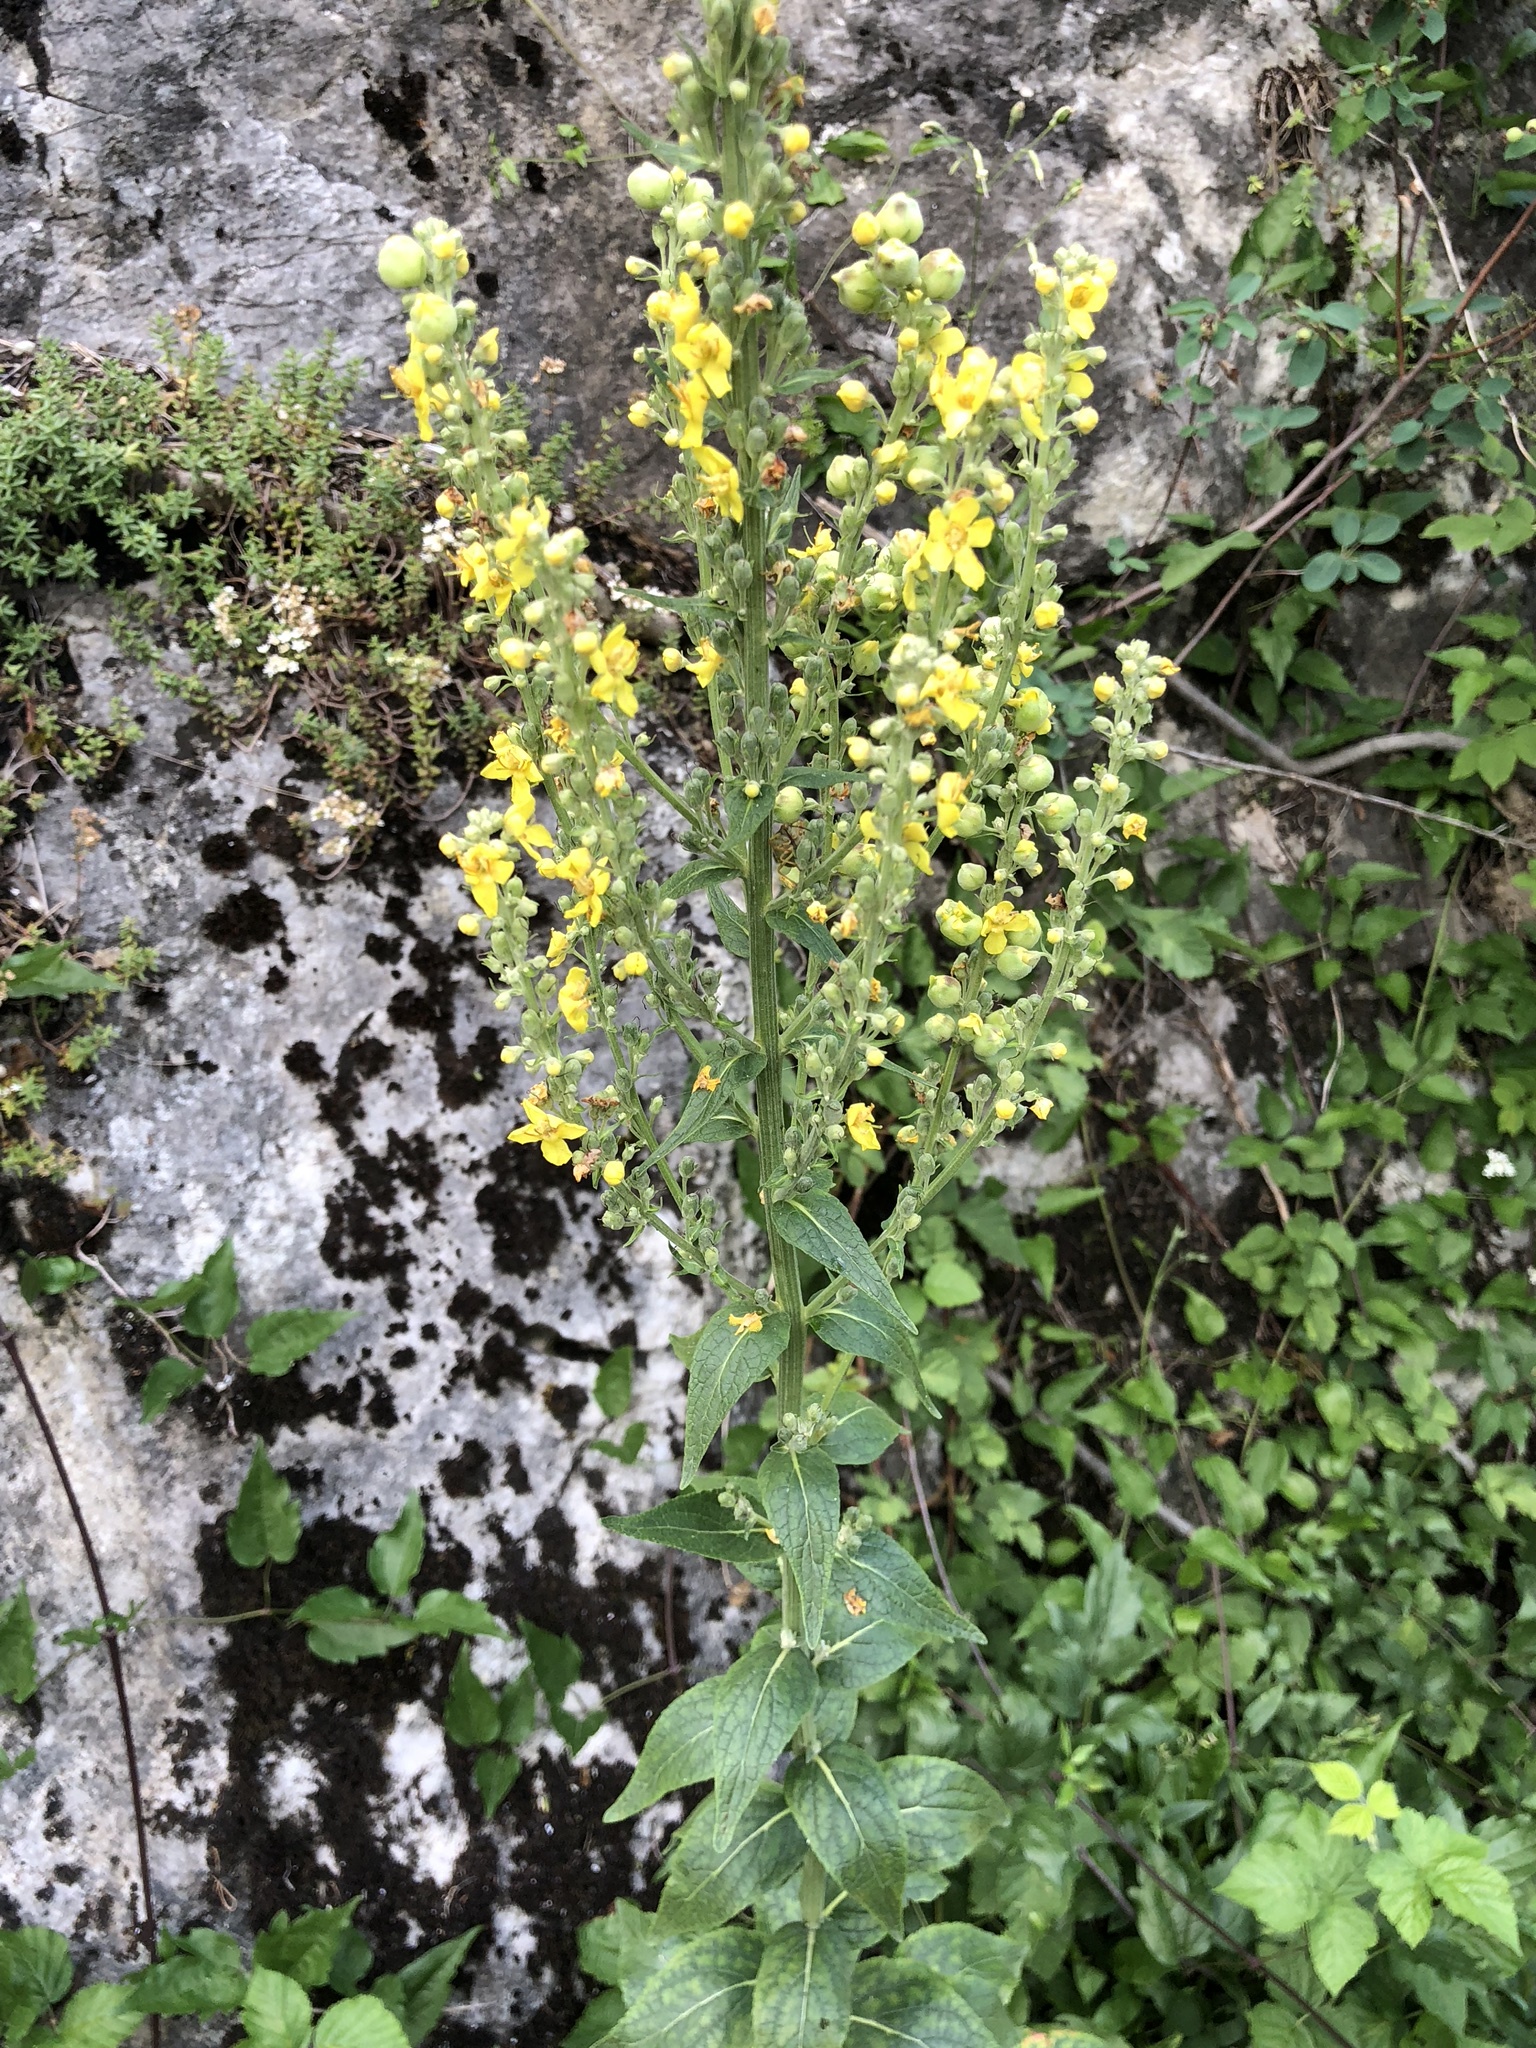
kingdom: Plantae
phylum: Tracheophyta
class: Magnoliopsida
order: Lamiales
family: Scrophulariaceae
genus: Verbascum
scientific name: Verbascum nigrum
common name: Dark mullein
